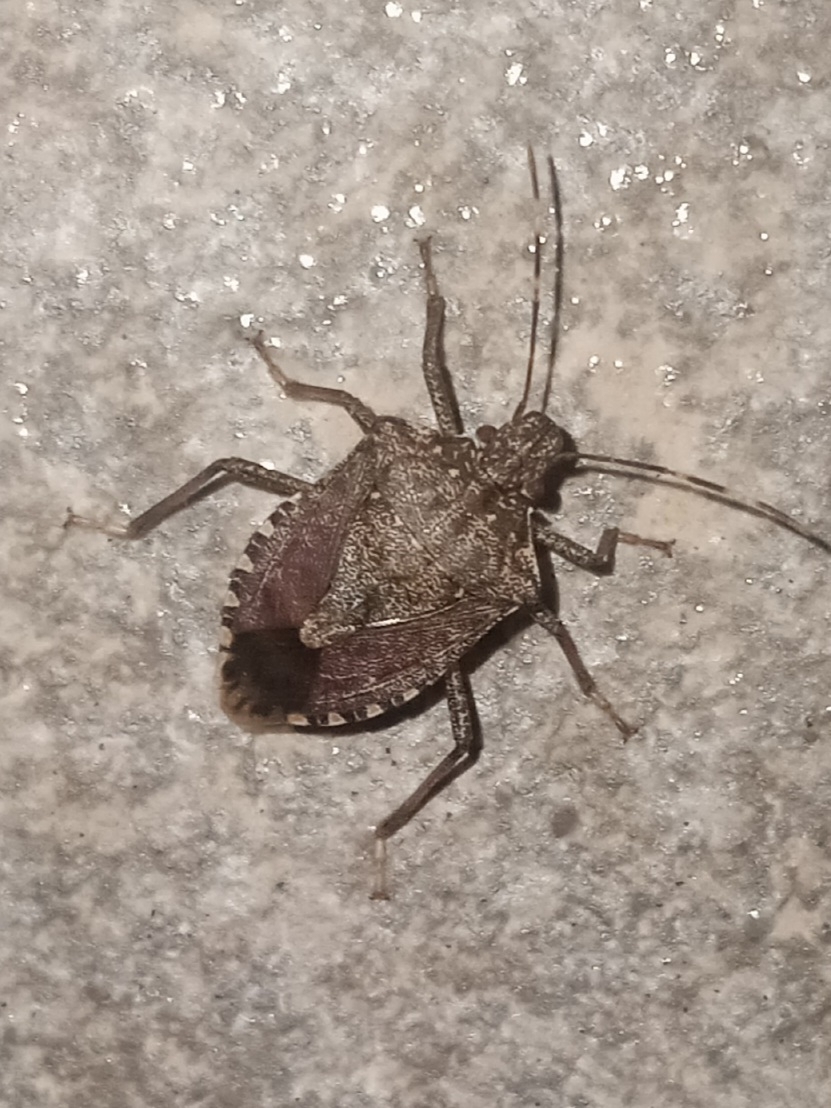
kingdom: Animalia
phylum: Arthropoda
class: Insecta
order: Hemiptera
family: Pentatomidae
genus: Halyomorpha
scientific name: Halyomorpha halys
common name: Brown marmorated stink bug
